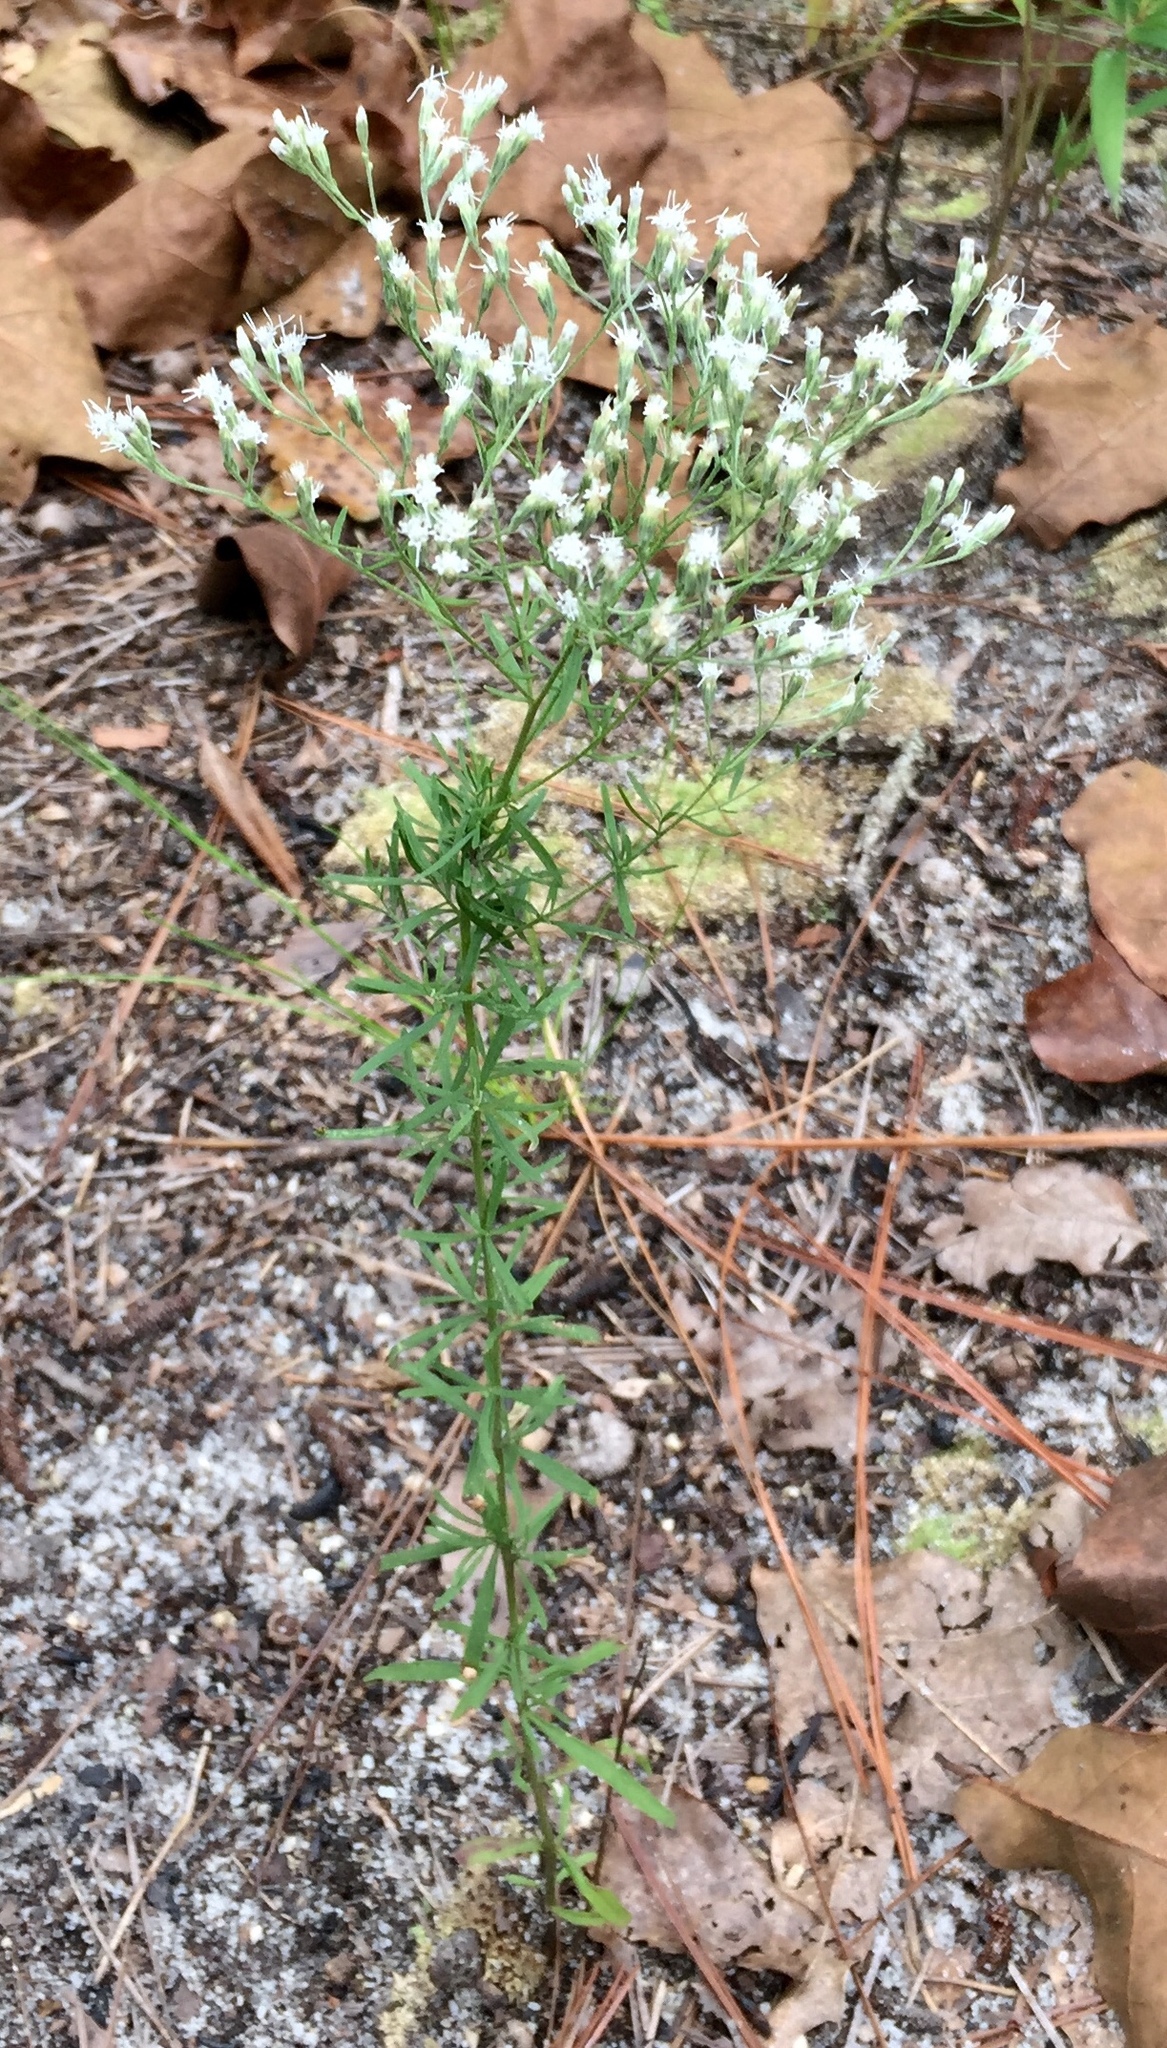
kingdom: Plantae
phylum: Tracheophyta
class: Magnoliopsida
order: Asterales
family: Asteraceae
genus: Eupatorium
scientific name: Eupatorium hyssopifolium
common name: Hyssop-leaf thoroughwort
